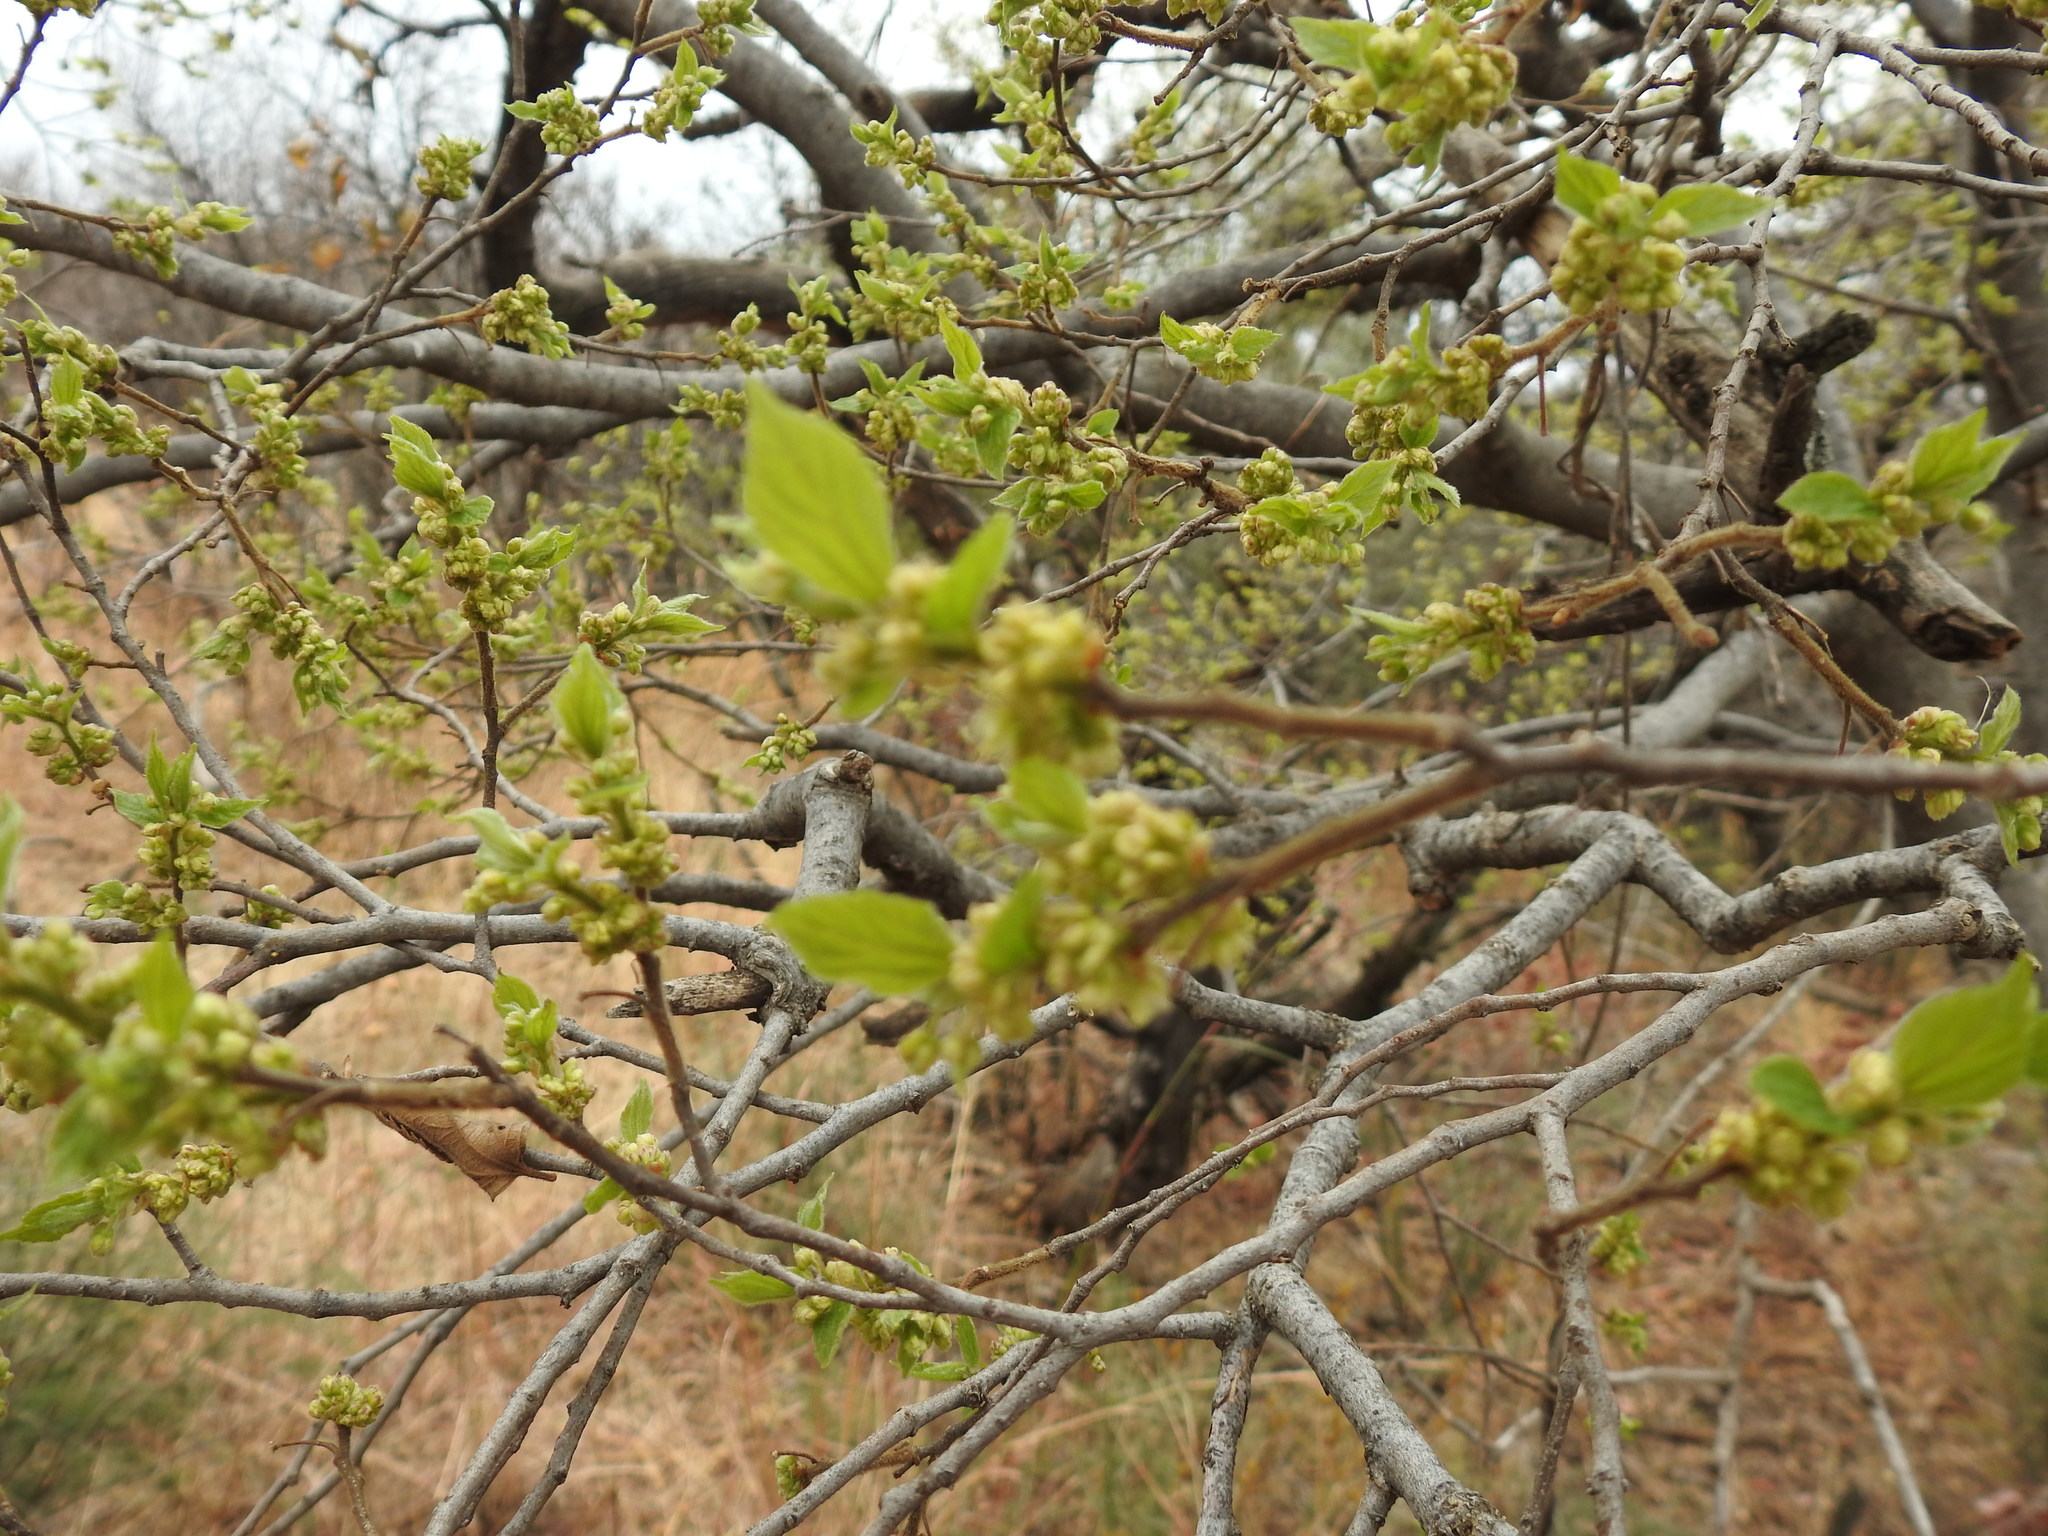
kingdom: Plantae
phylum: Tracheophyta
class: Magnoliopsida
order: Rosales
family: Cannabaceae
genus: Celtis
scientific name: Celtis africana
